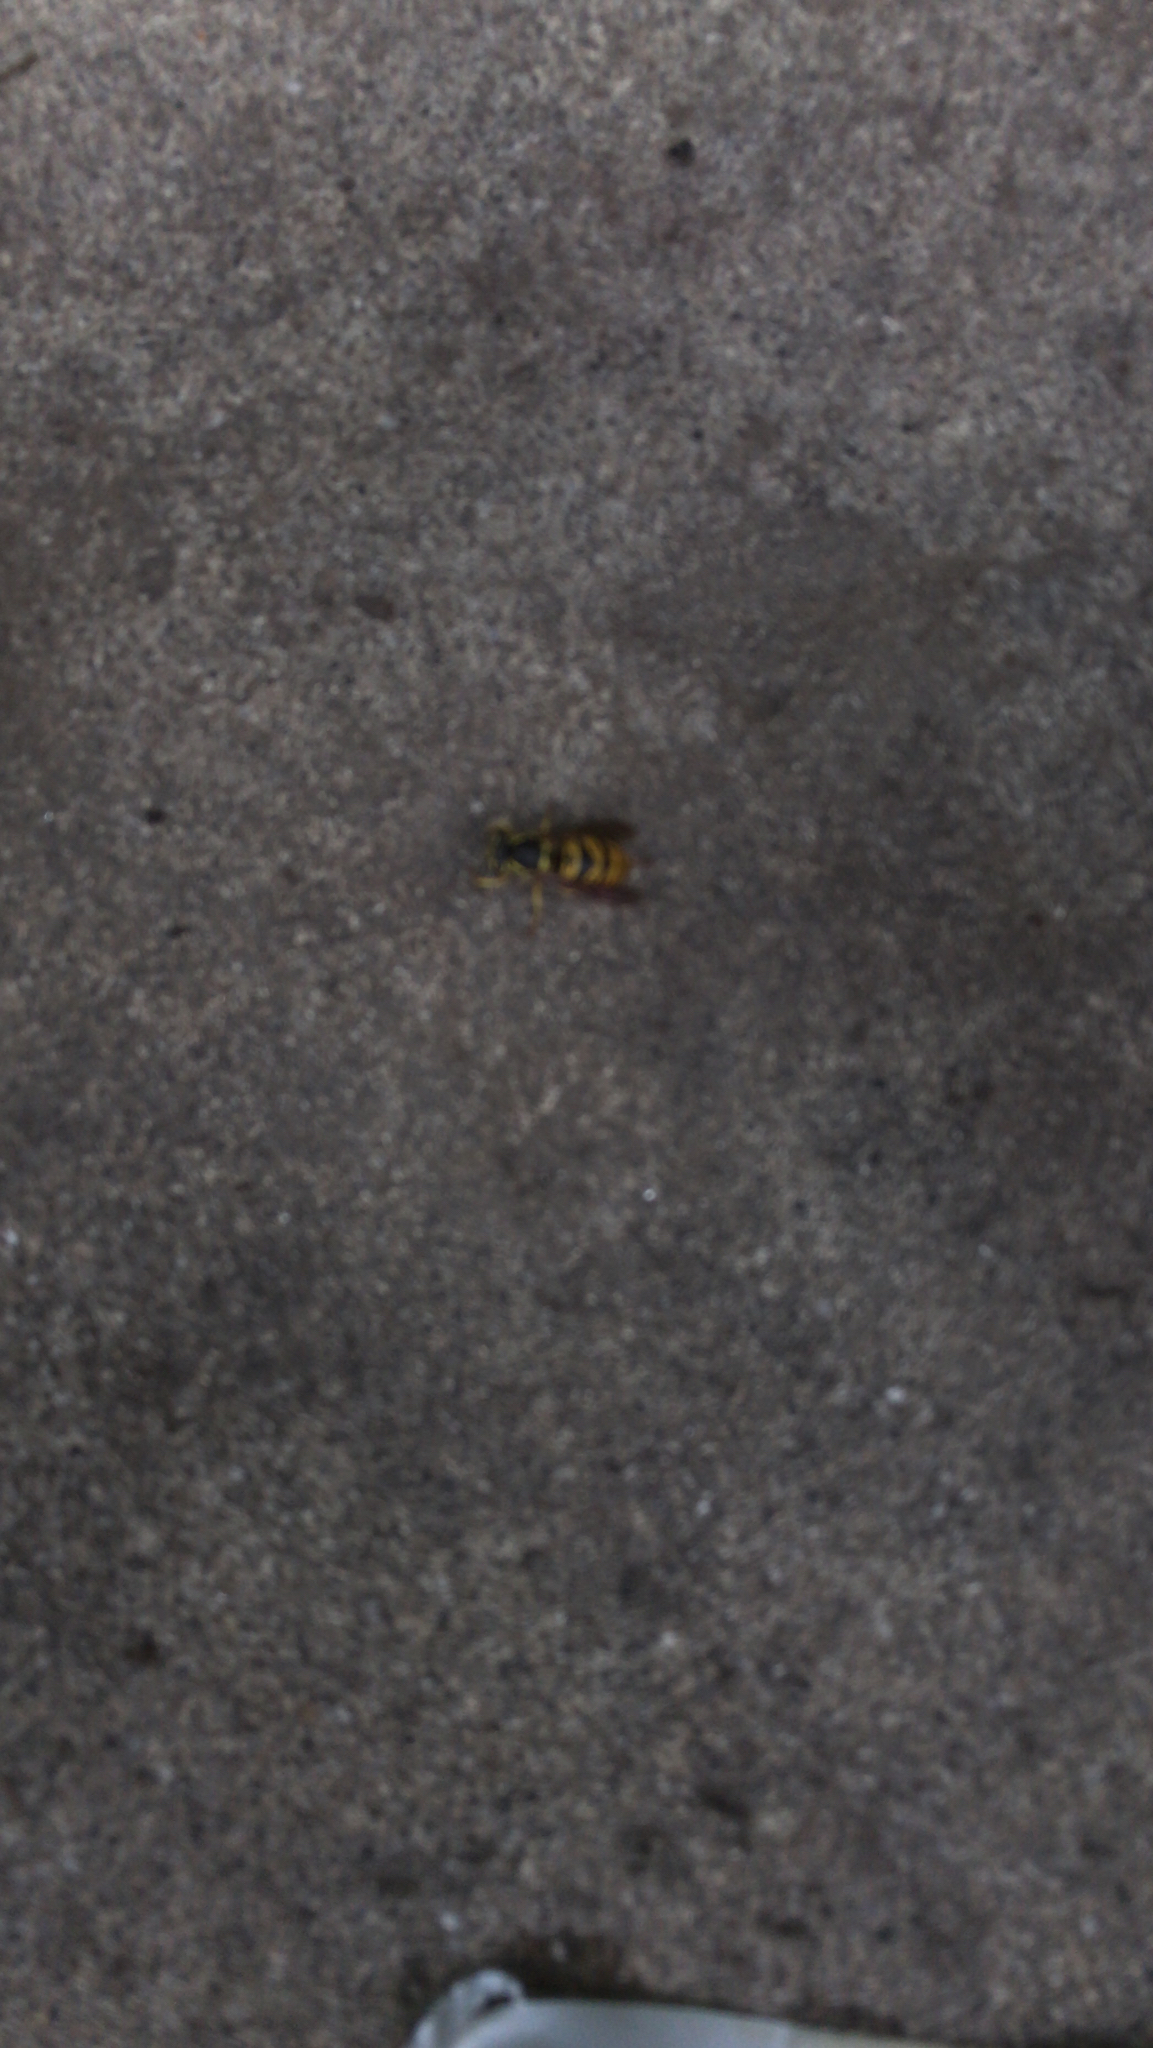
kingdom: Animalia
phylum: Arthropoda
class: Insecta
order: Hymenoptera
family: Vespidae
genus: Vespula
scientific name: Vespula
